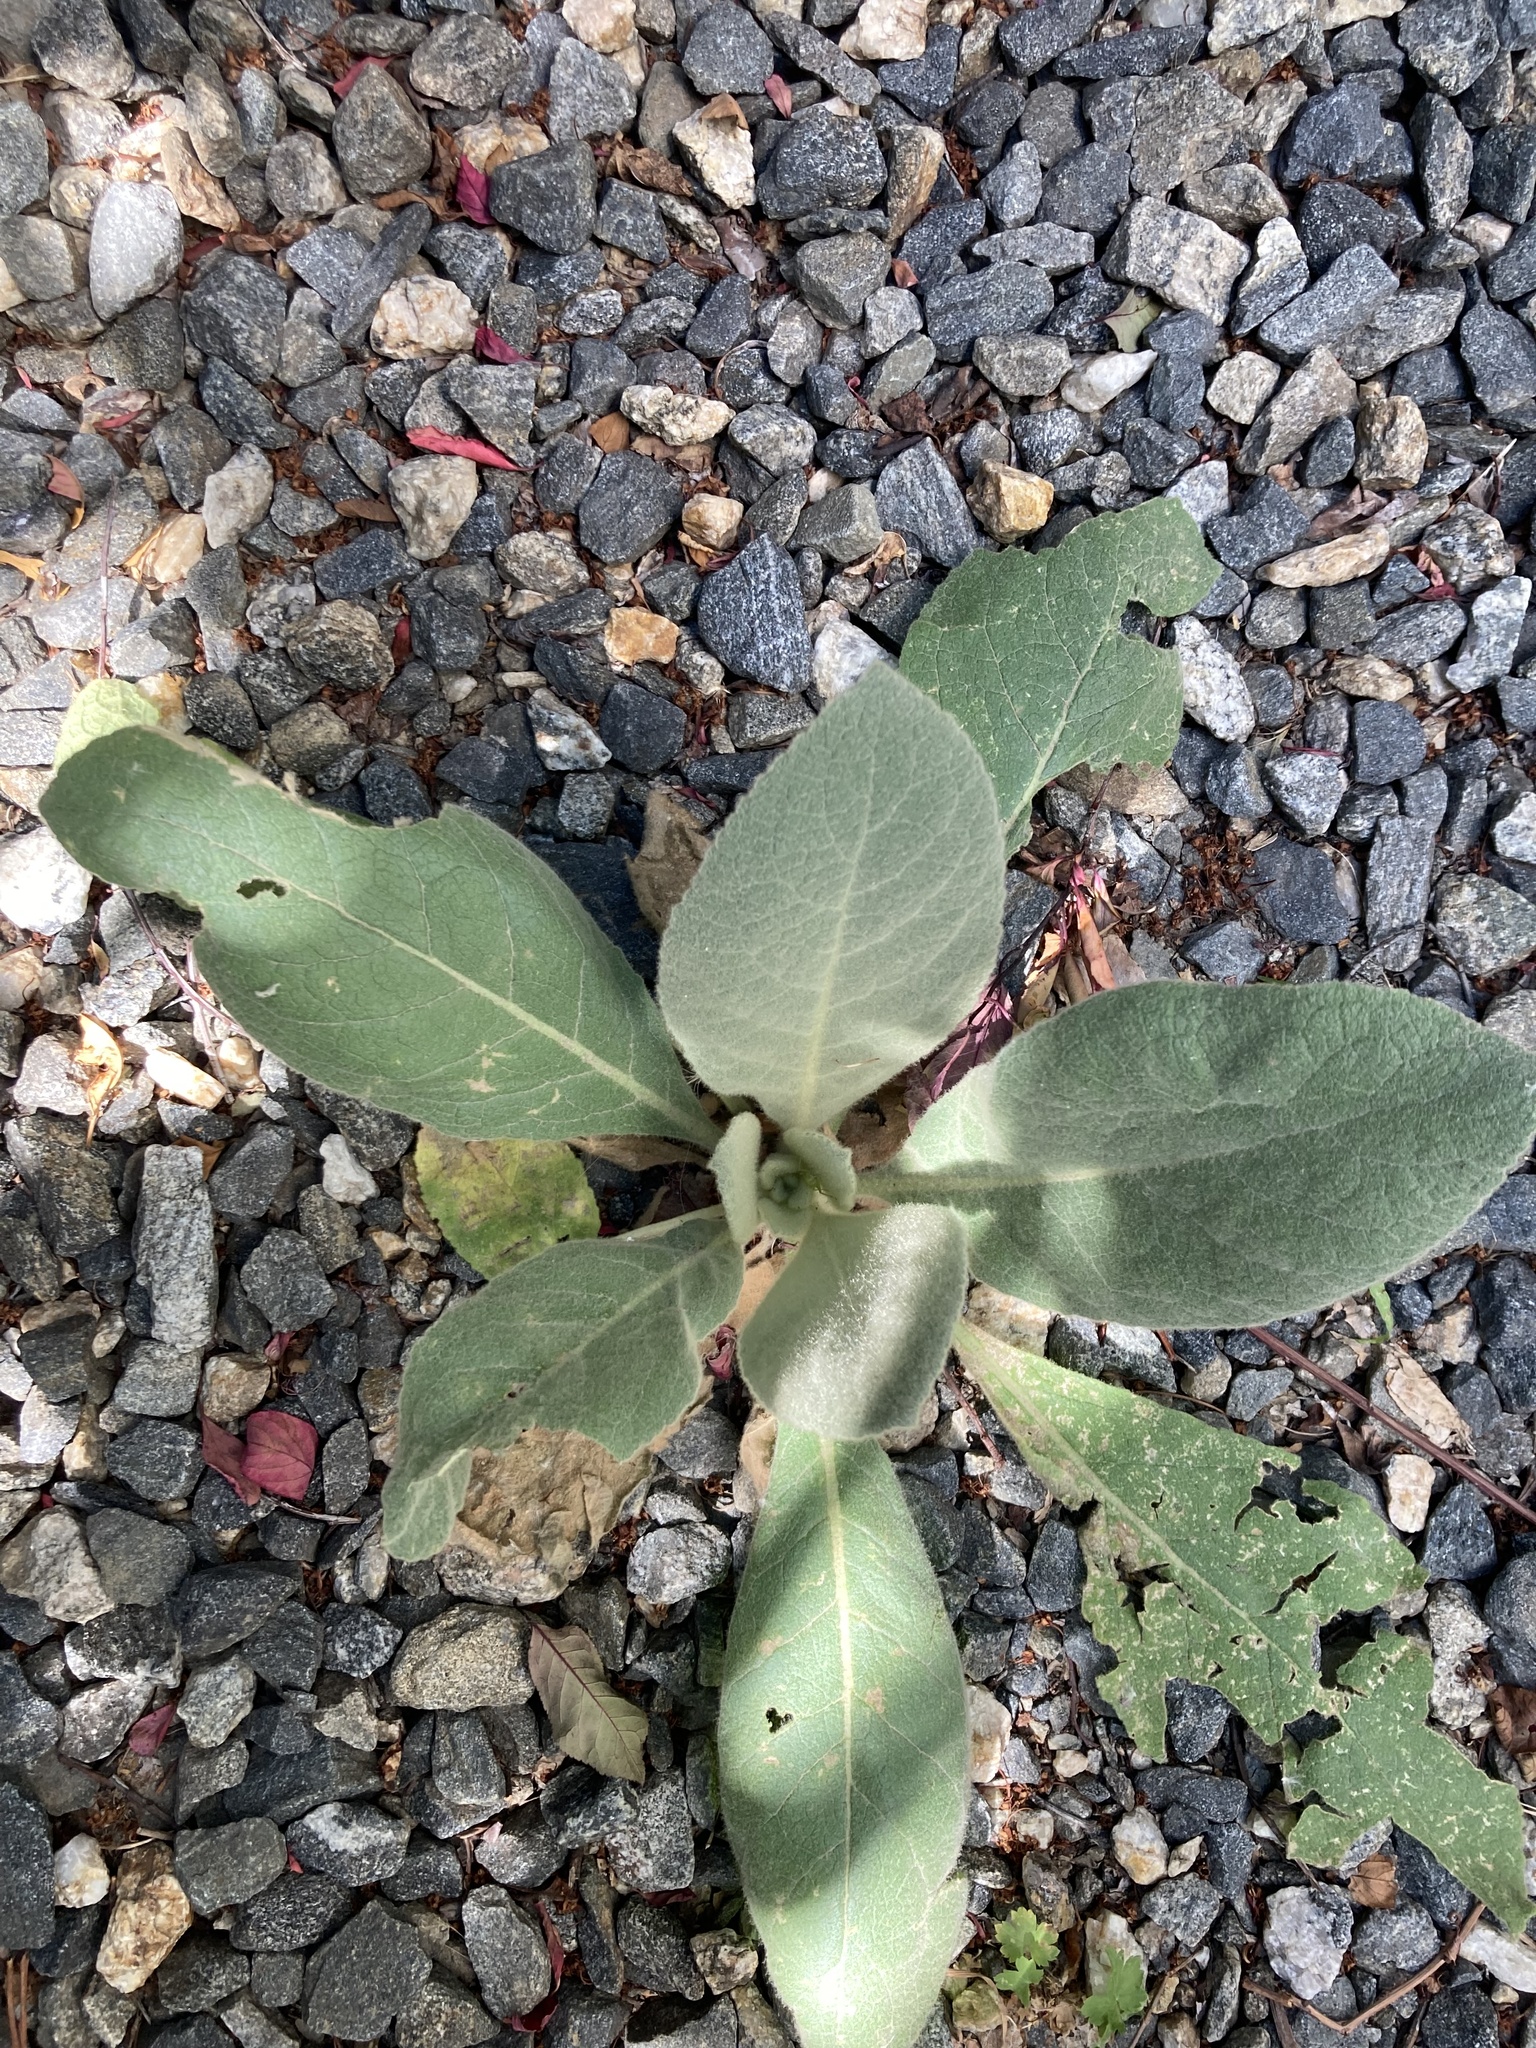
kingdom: Plantae
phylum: Tracheophyta
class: Magnoliopsida
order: Lamiales
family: Scrophulariaceae
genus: Verbascum
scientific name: Verbascum thapsus
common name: Common mullein
